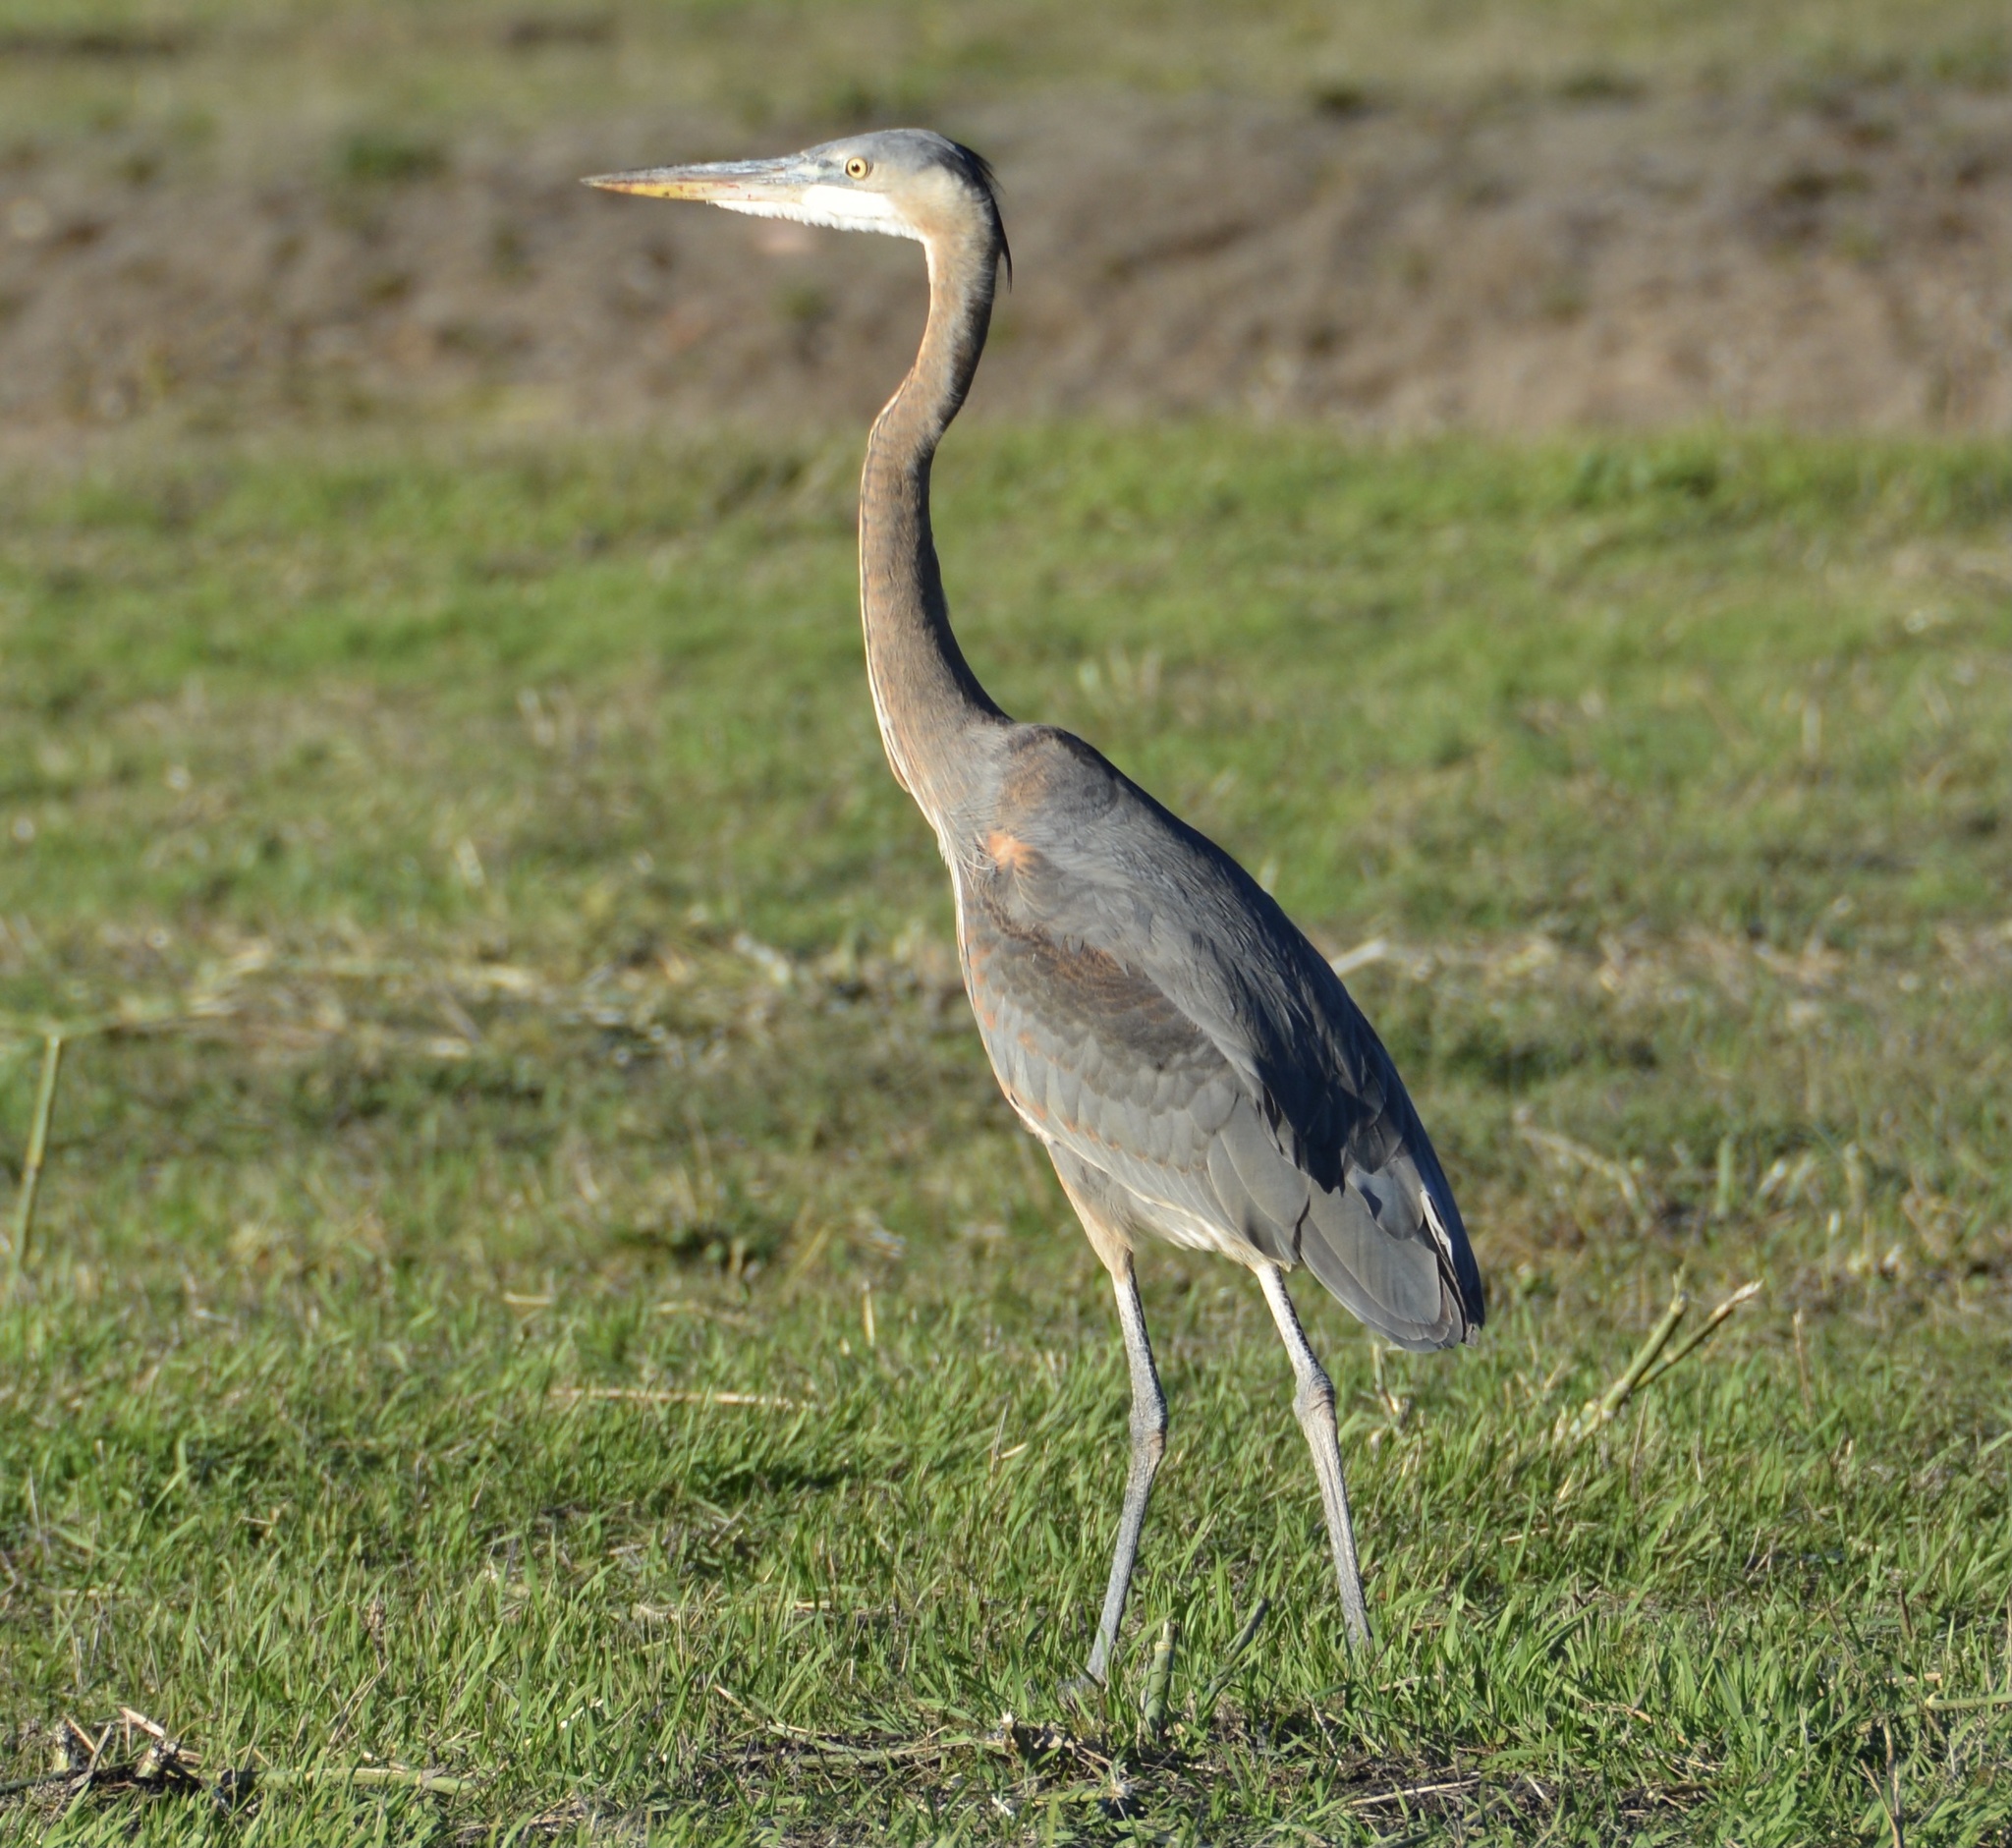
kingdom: Animalia
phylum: Chordata
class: Aves
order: Pelecaniformes
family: Ardeidae
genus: Ardea
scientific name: Ardea herodias
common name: Great blue heron
